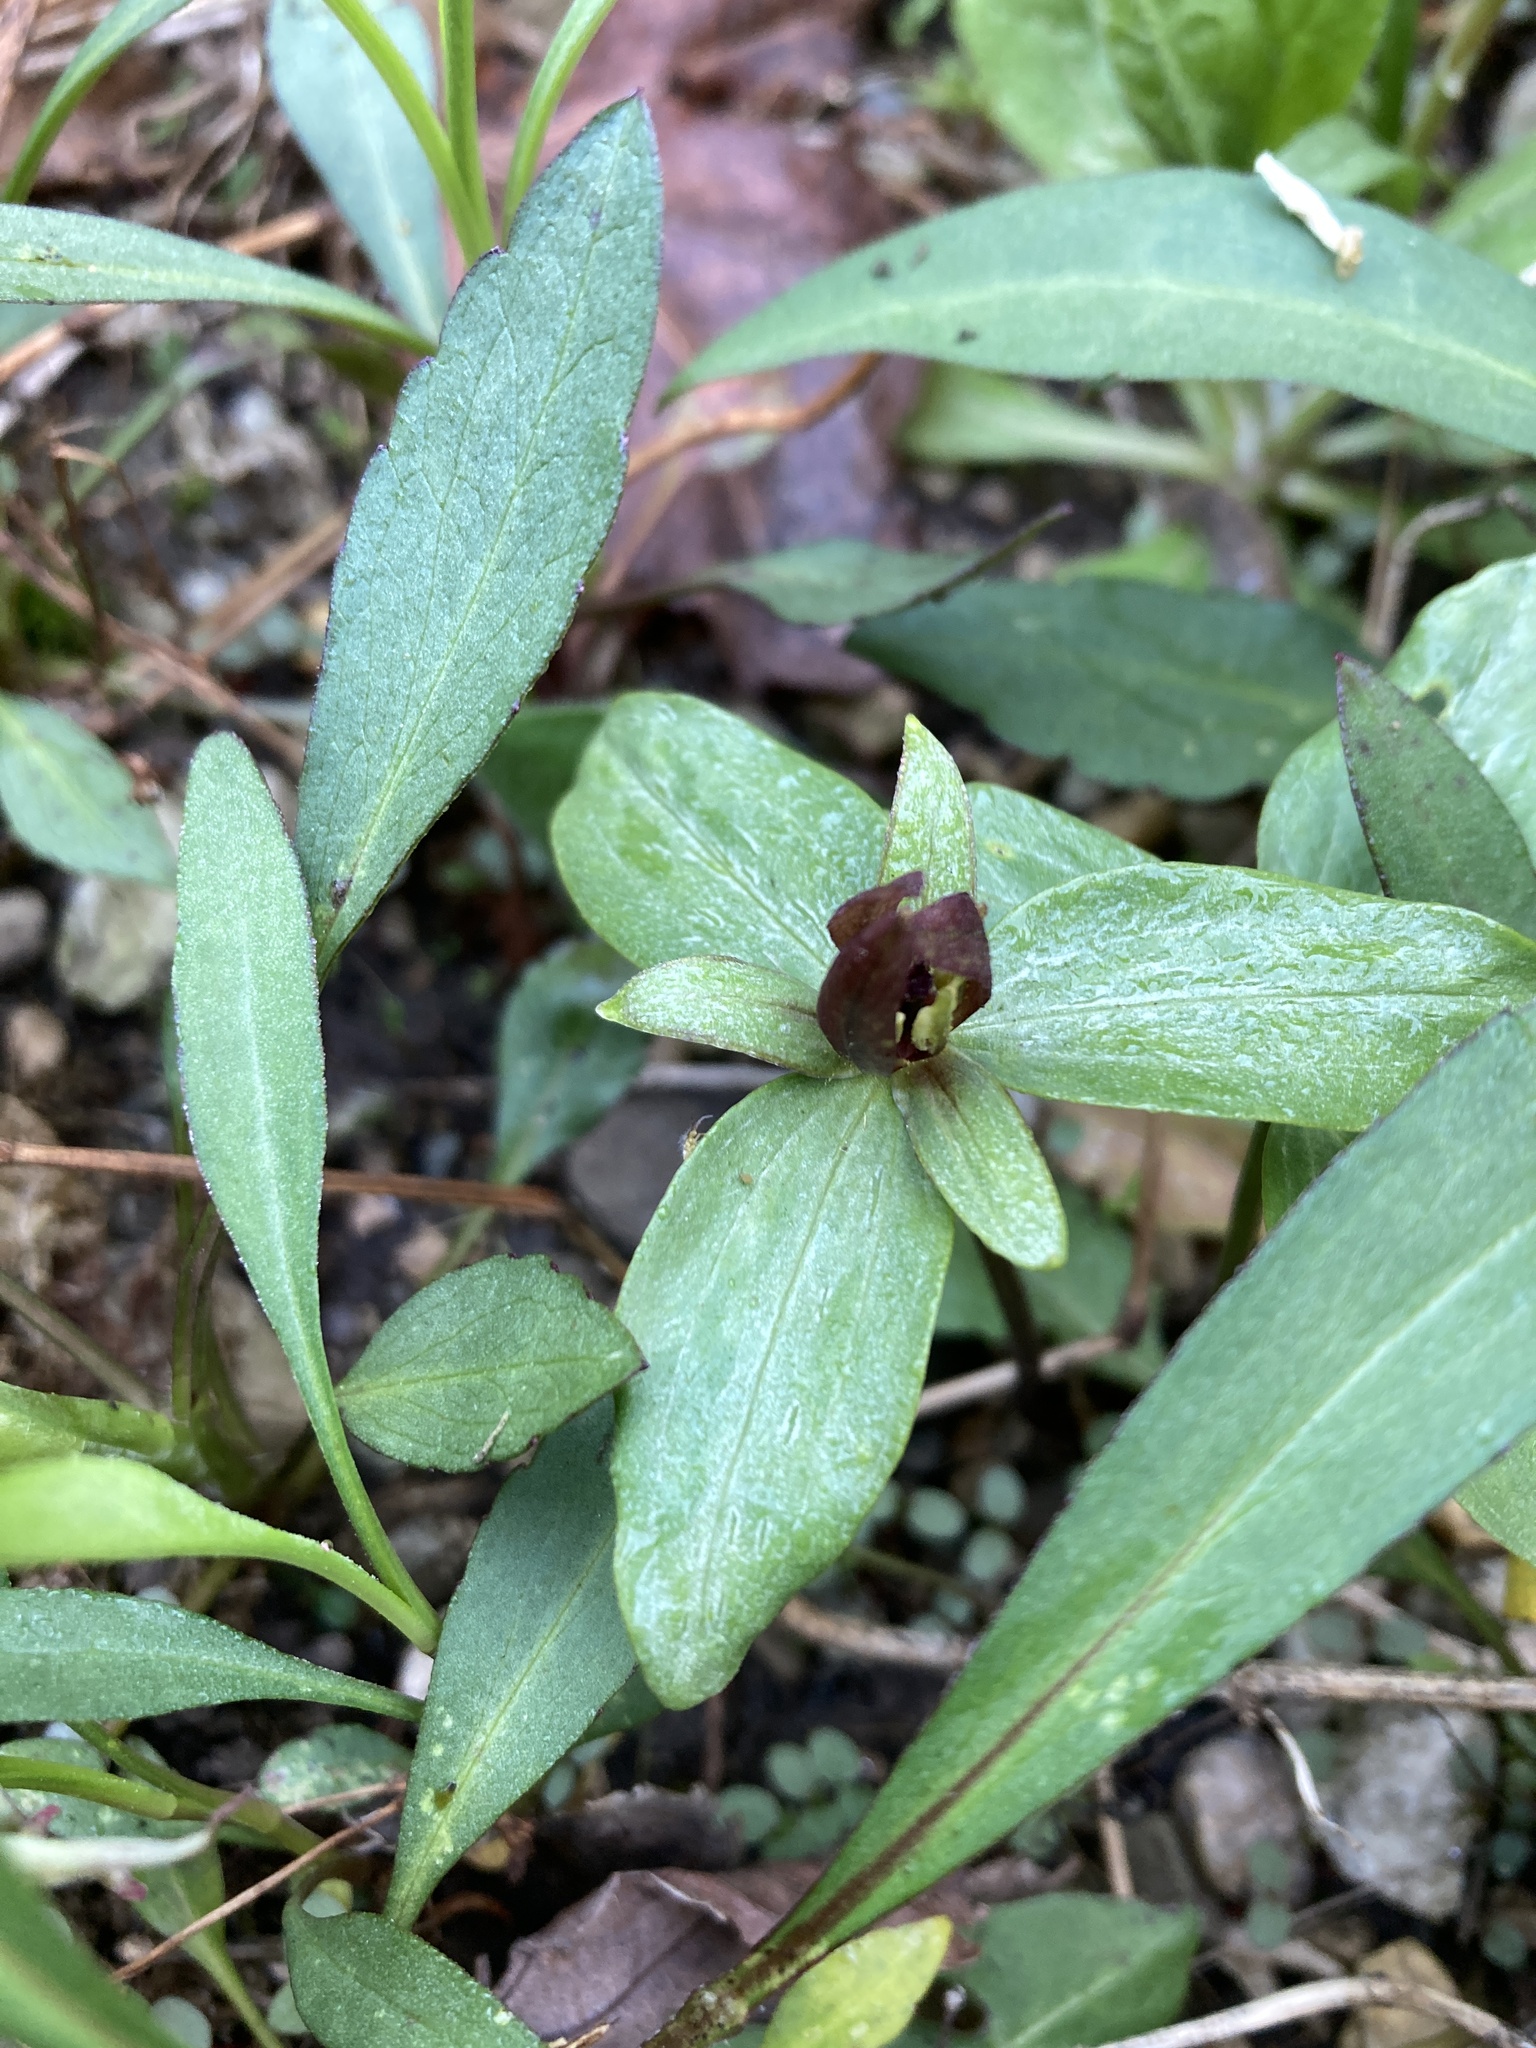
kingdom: Plantae
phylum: Tracheophyta
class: Liliopsida
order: Liliales
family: Melanthiaceae
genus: Trillium
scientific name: Trillium sessile
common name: Sessile trillium
